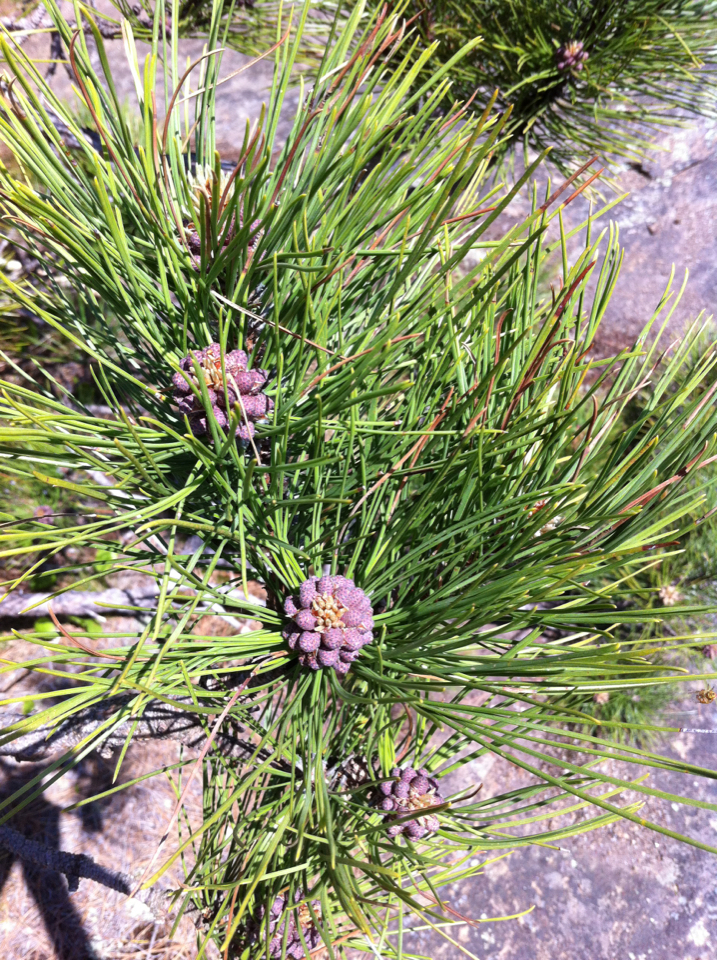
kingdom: Plantae
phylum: Tracheophyta
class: Pinopsida
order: Pinales
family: Pinaceae
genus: Pinus
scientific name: Pinus resinosa
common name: Norway pine
